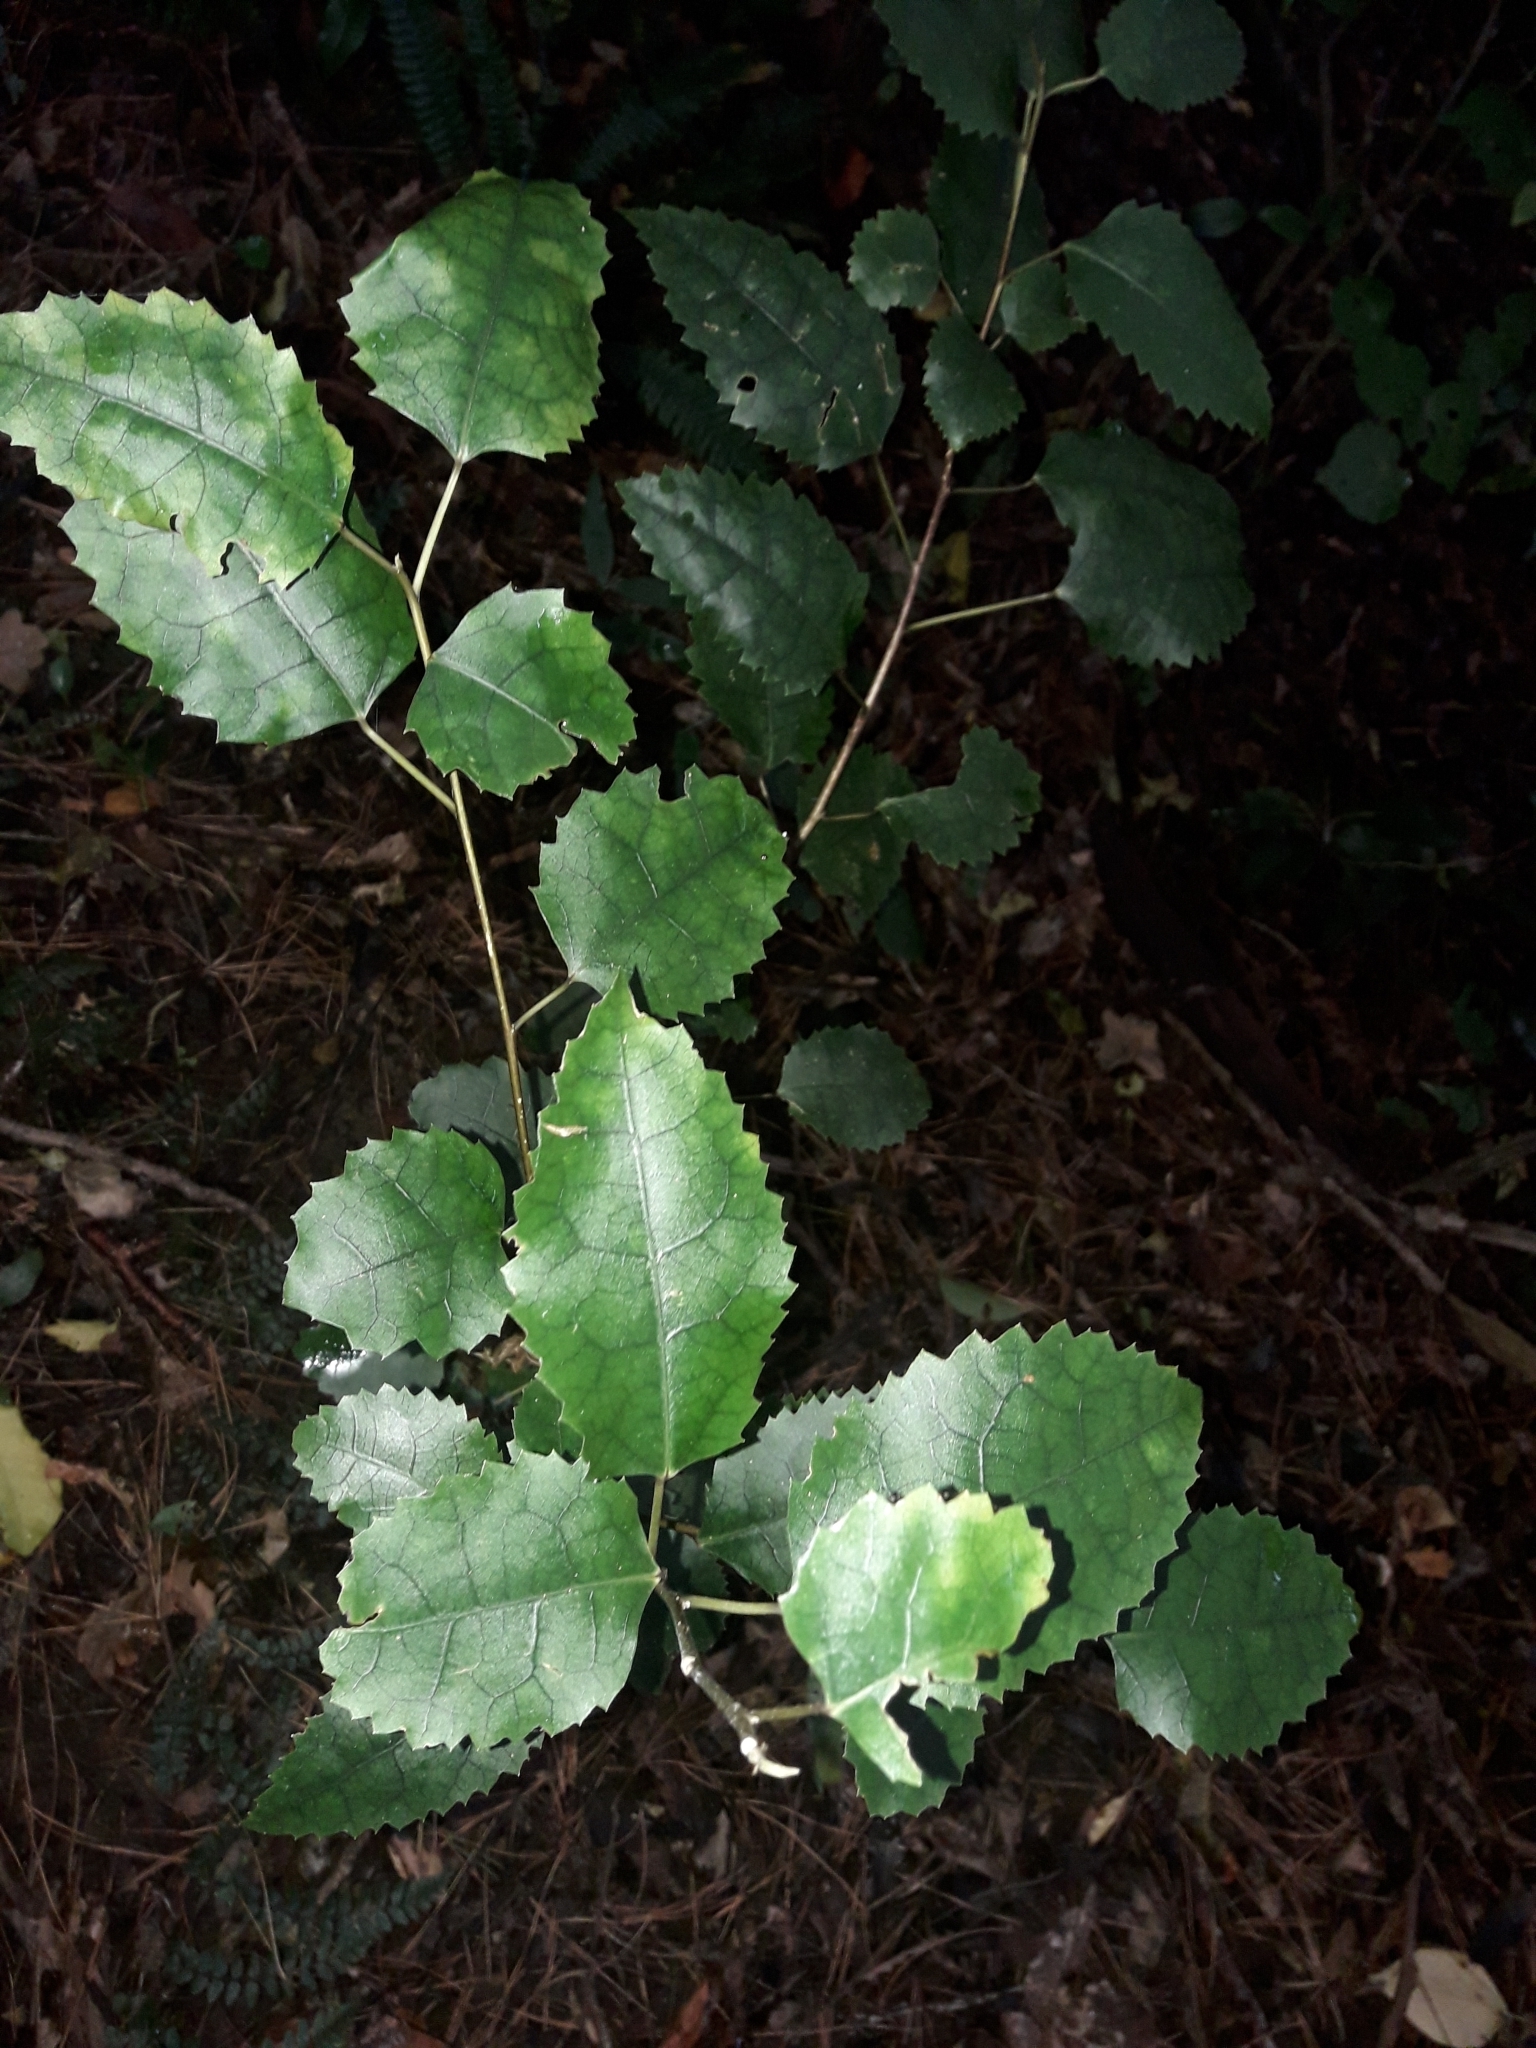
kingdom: Plantae
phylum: Tracheophyta
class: Magnoliopsida
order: Malvales
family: Malvaceae
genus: Hoheria
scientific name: Hoheria populnea
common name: Lacebark
